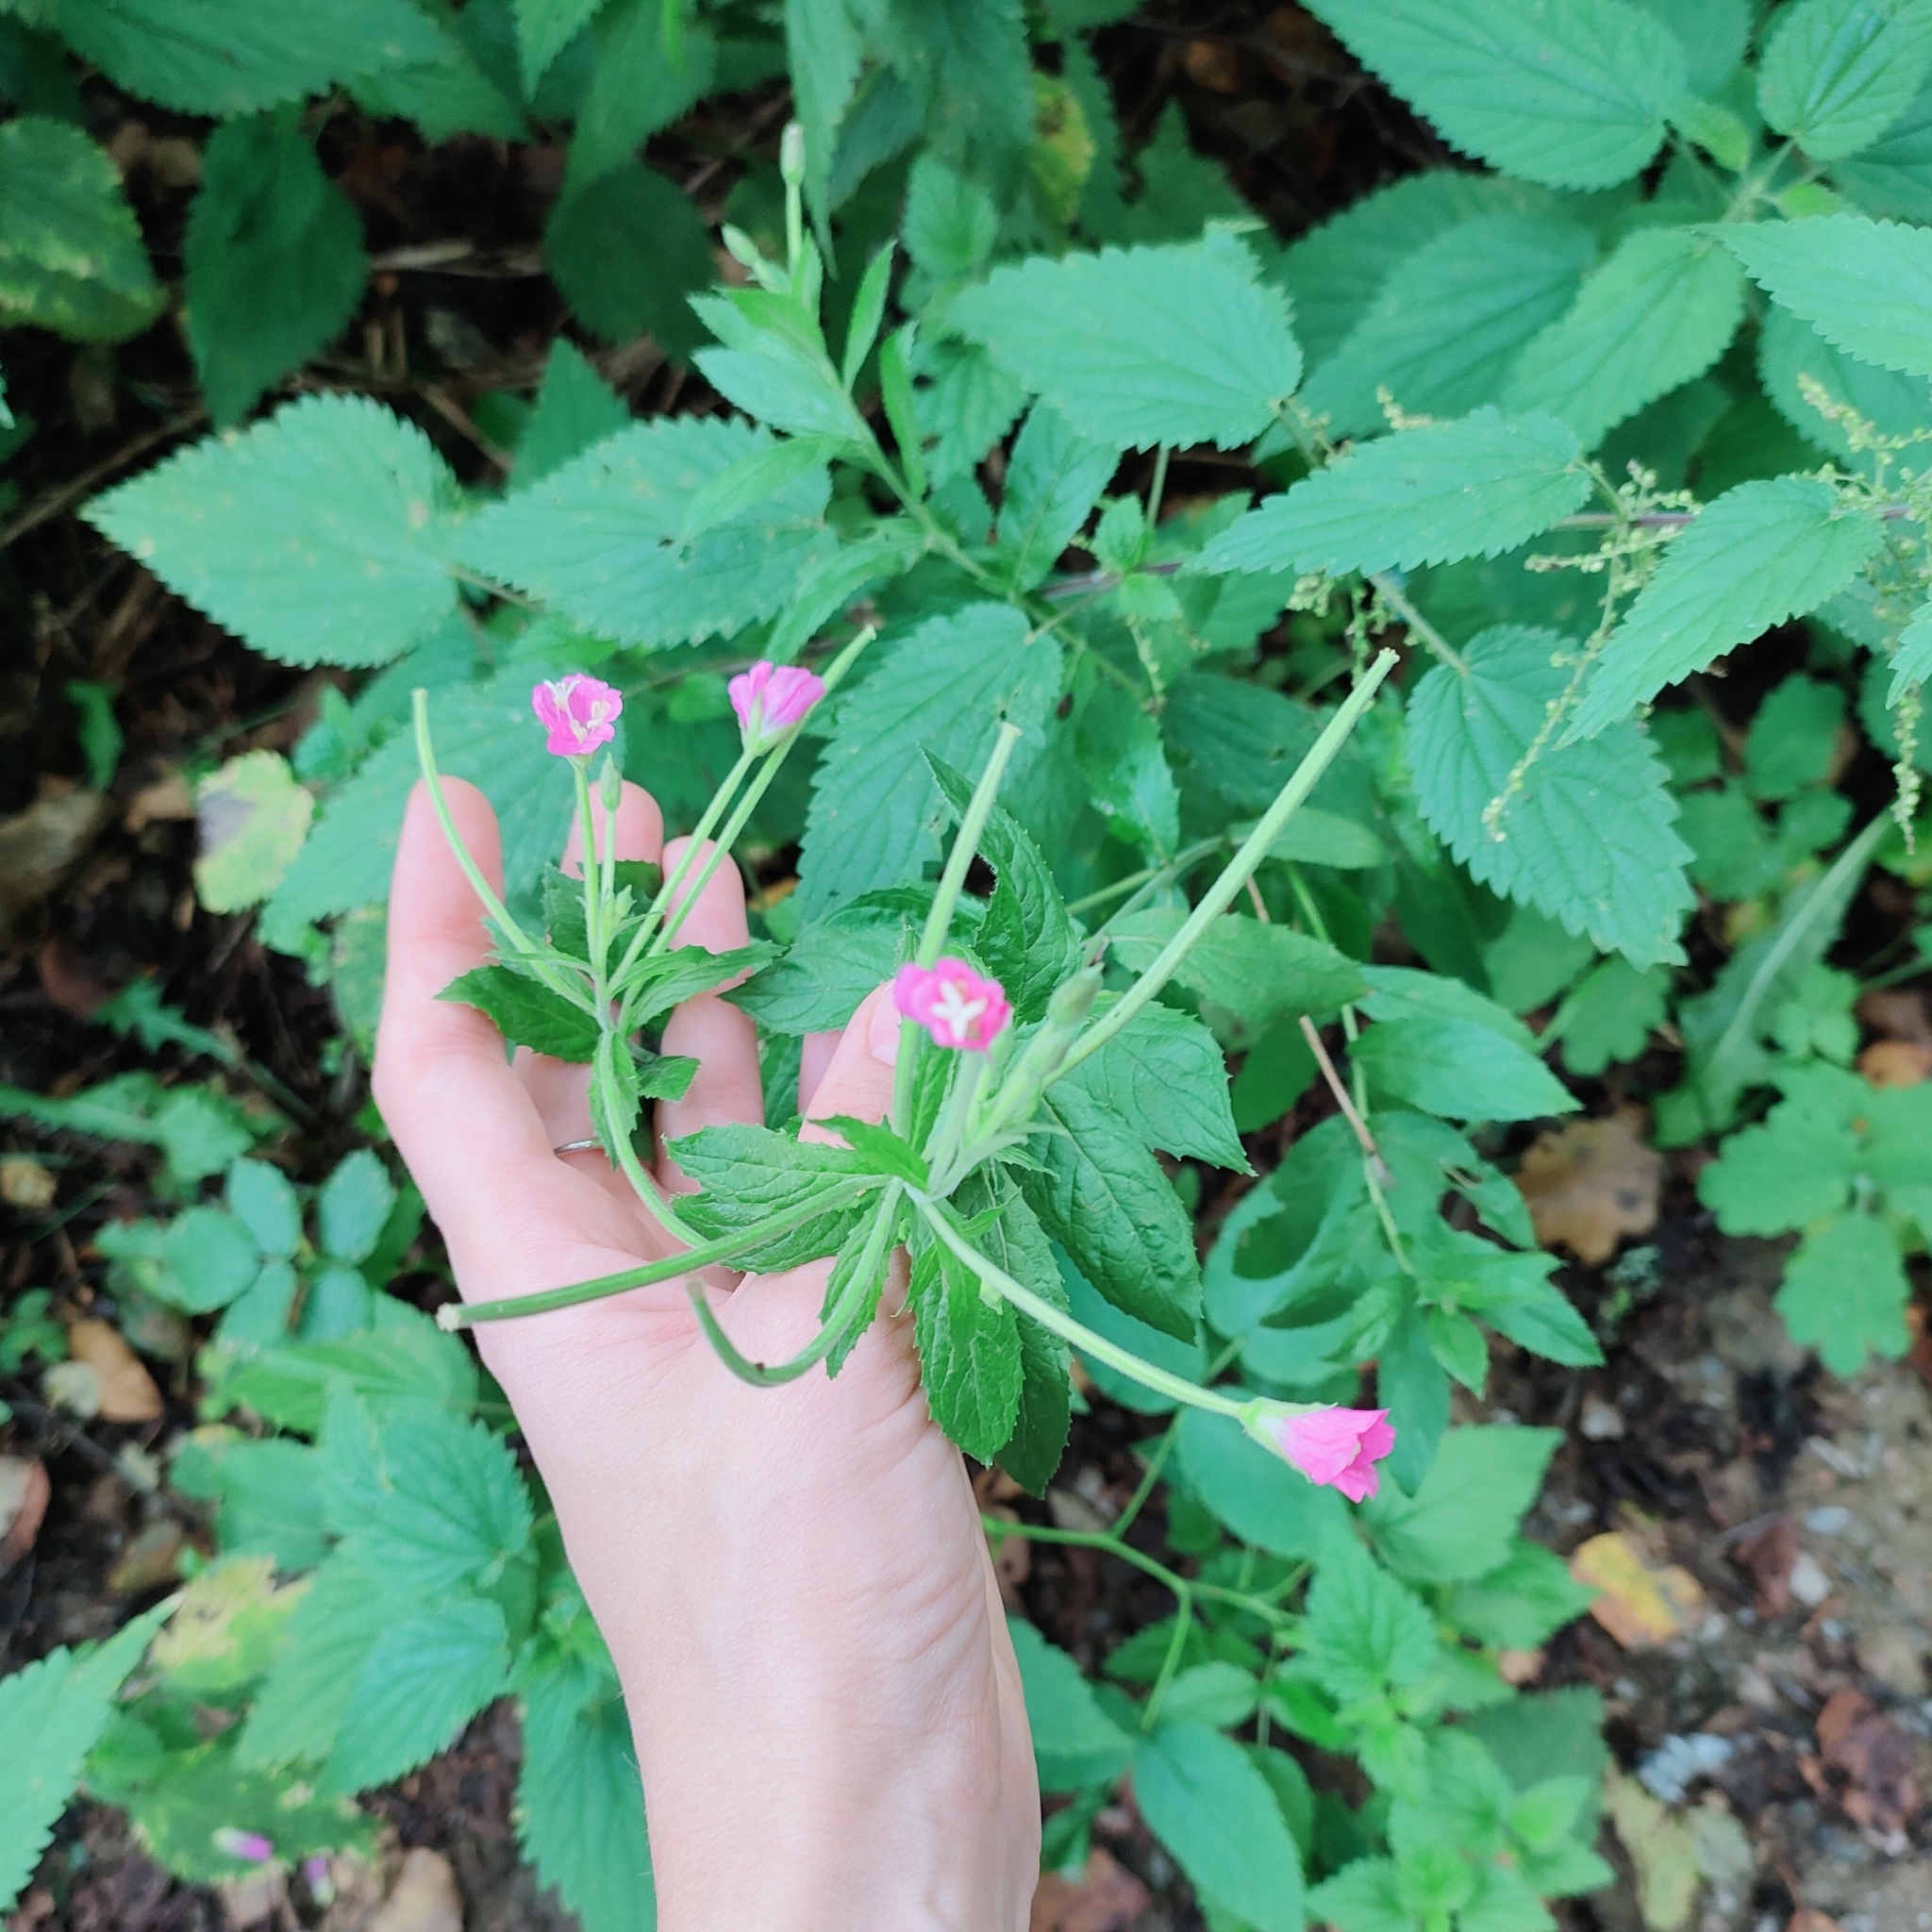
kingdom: Plantae
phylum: Tracheophyta
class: Magnoliopsida
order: Myrtales
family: Onagraceae
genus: Epilobium
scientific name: Epilobium hirsutum
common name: Great willowherb
